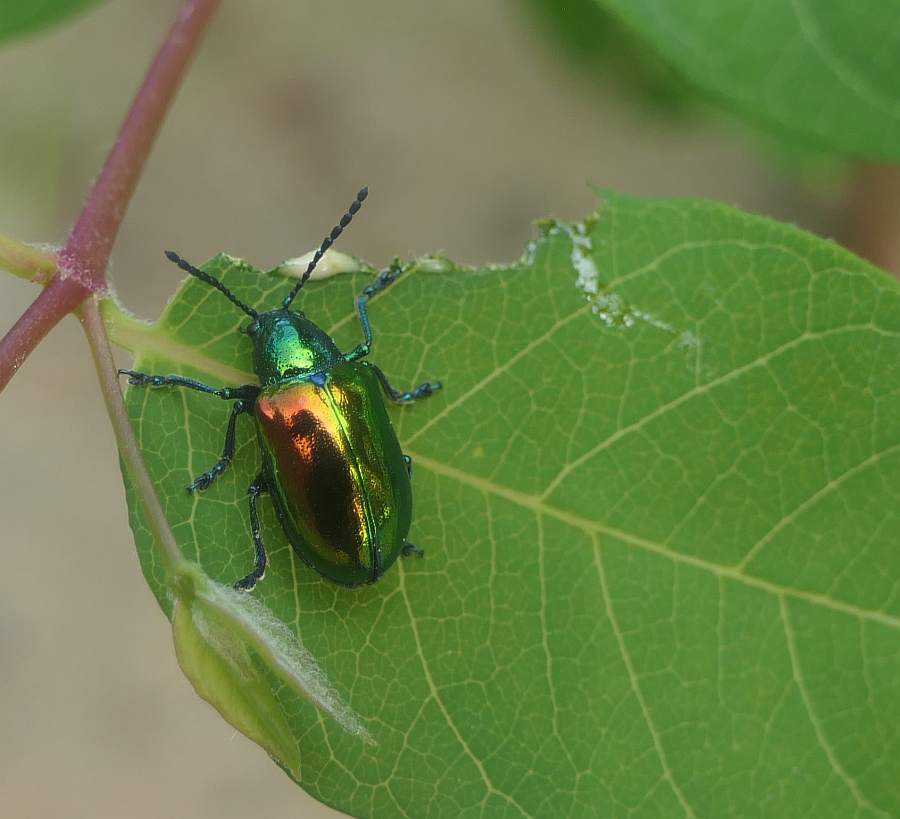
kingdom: Animalia
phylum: Arthropoda
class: Insecta
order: Coleoptera
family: Chrysomelidae
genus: Chrysochus
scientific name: Chrysochus auratus
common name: Dogbane leaf beetle
